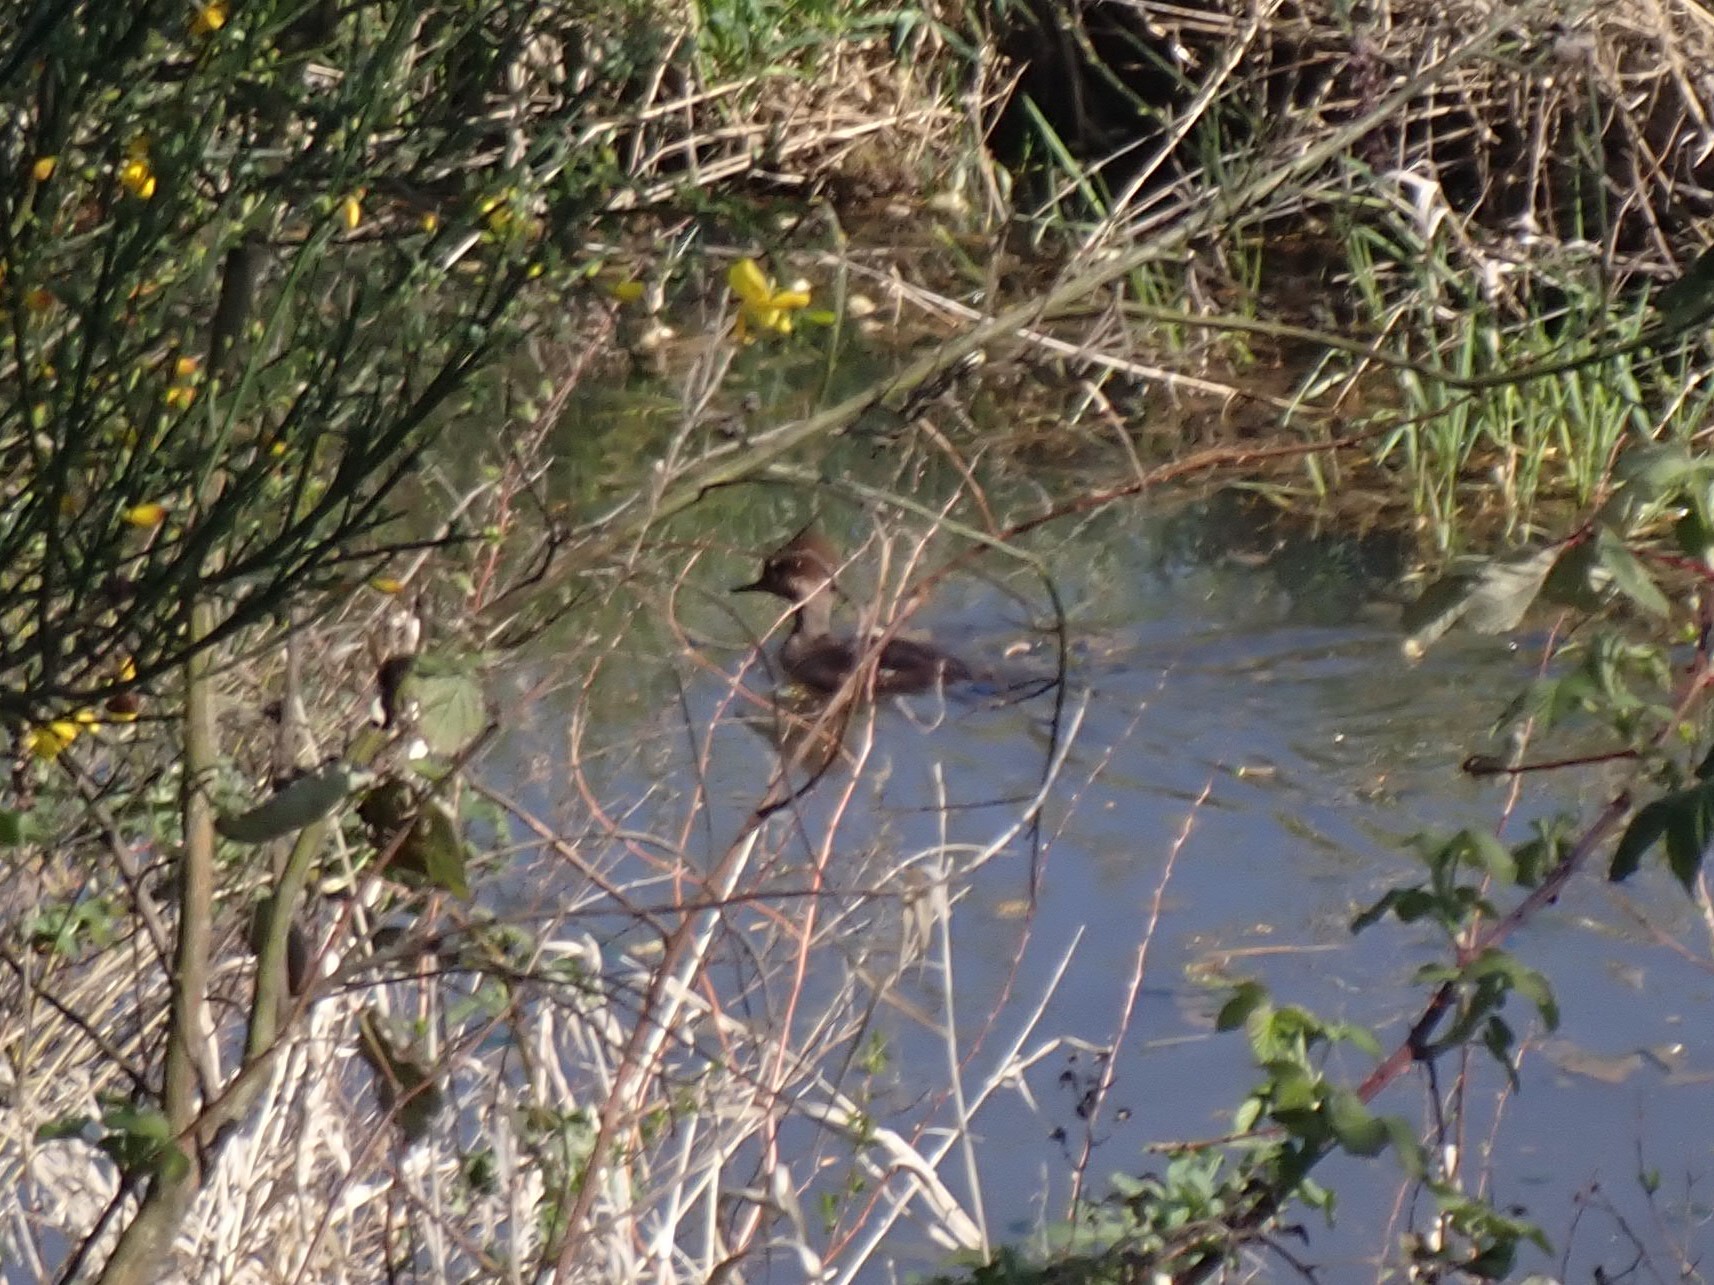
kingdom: Animalia
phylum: Chordata
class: Aves
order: Anseriformes
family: Anatidae
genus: Lophodytes
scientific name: Lophodytes cucullatus
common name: Hooded merganser
